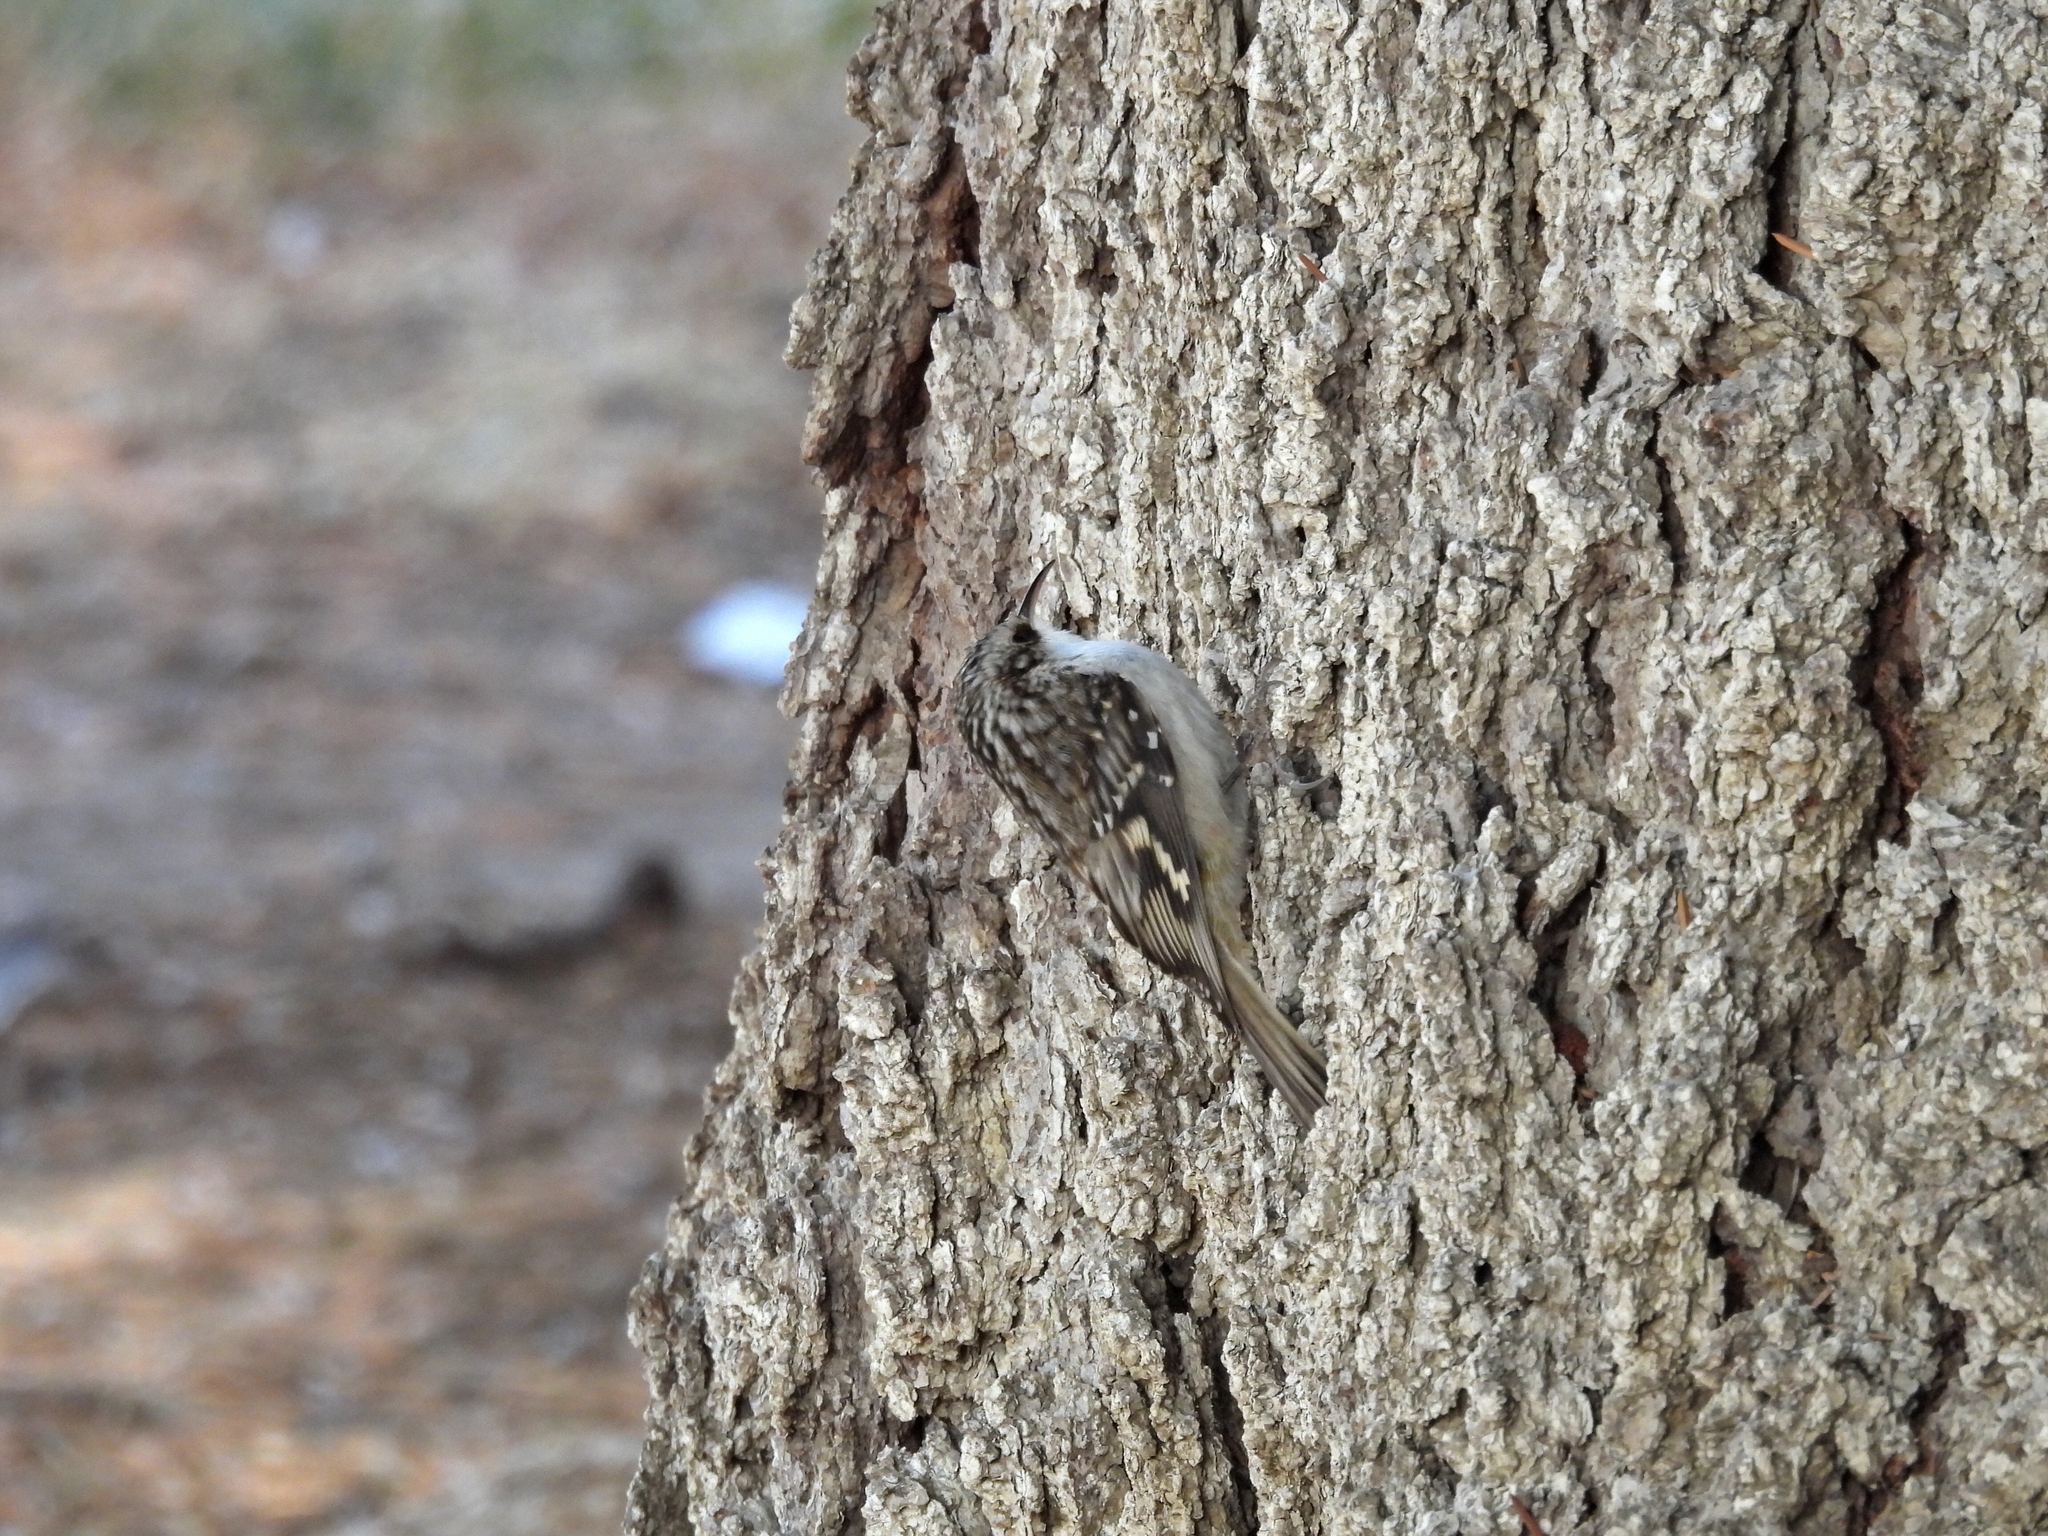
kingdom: Animalia
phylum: Chordata
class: Aves
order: Passeriformes
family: Certhiidae
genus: Certhia
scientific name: Certhia americana
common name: Brown creeper
